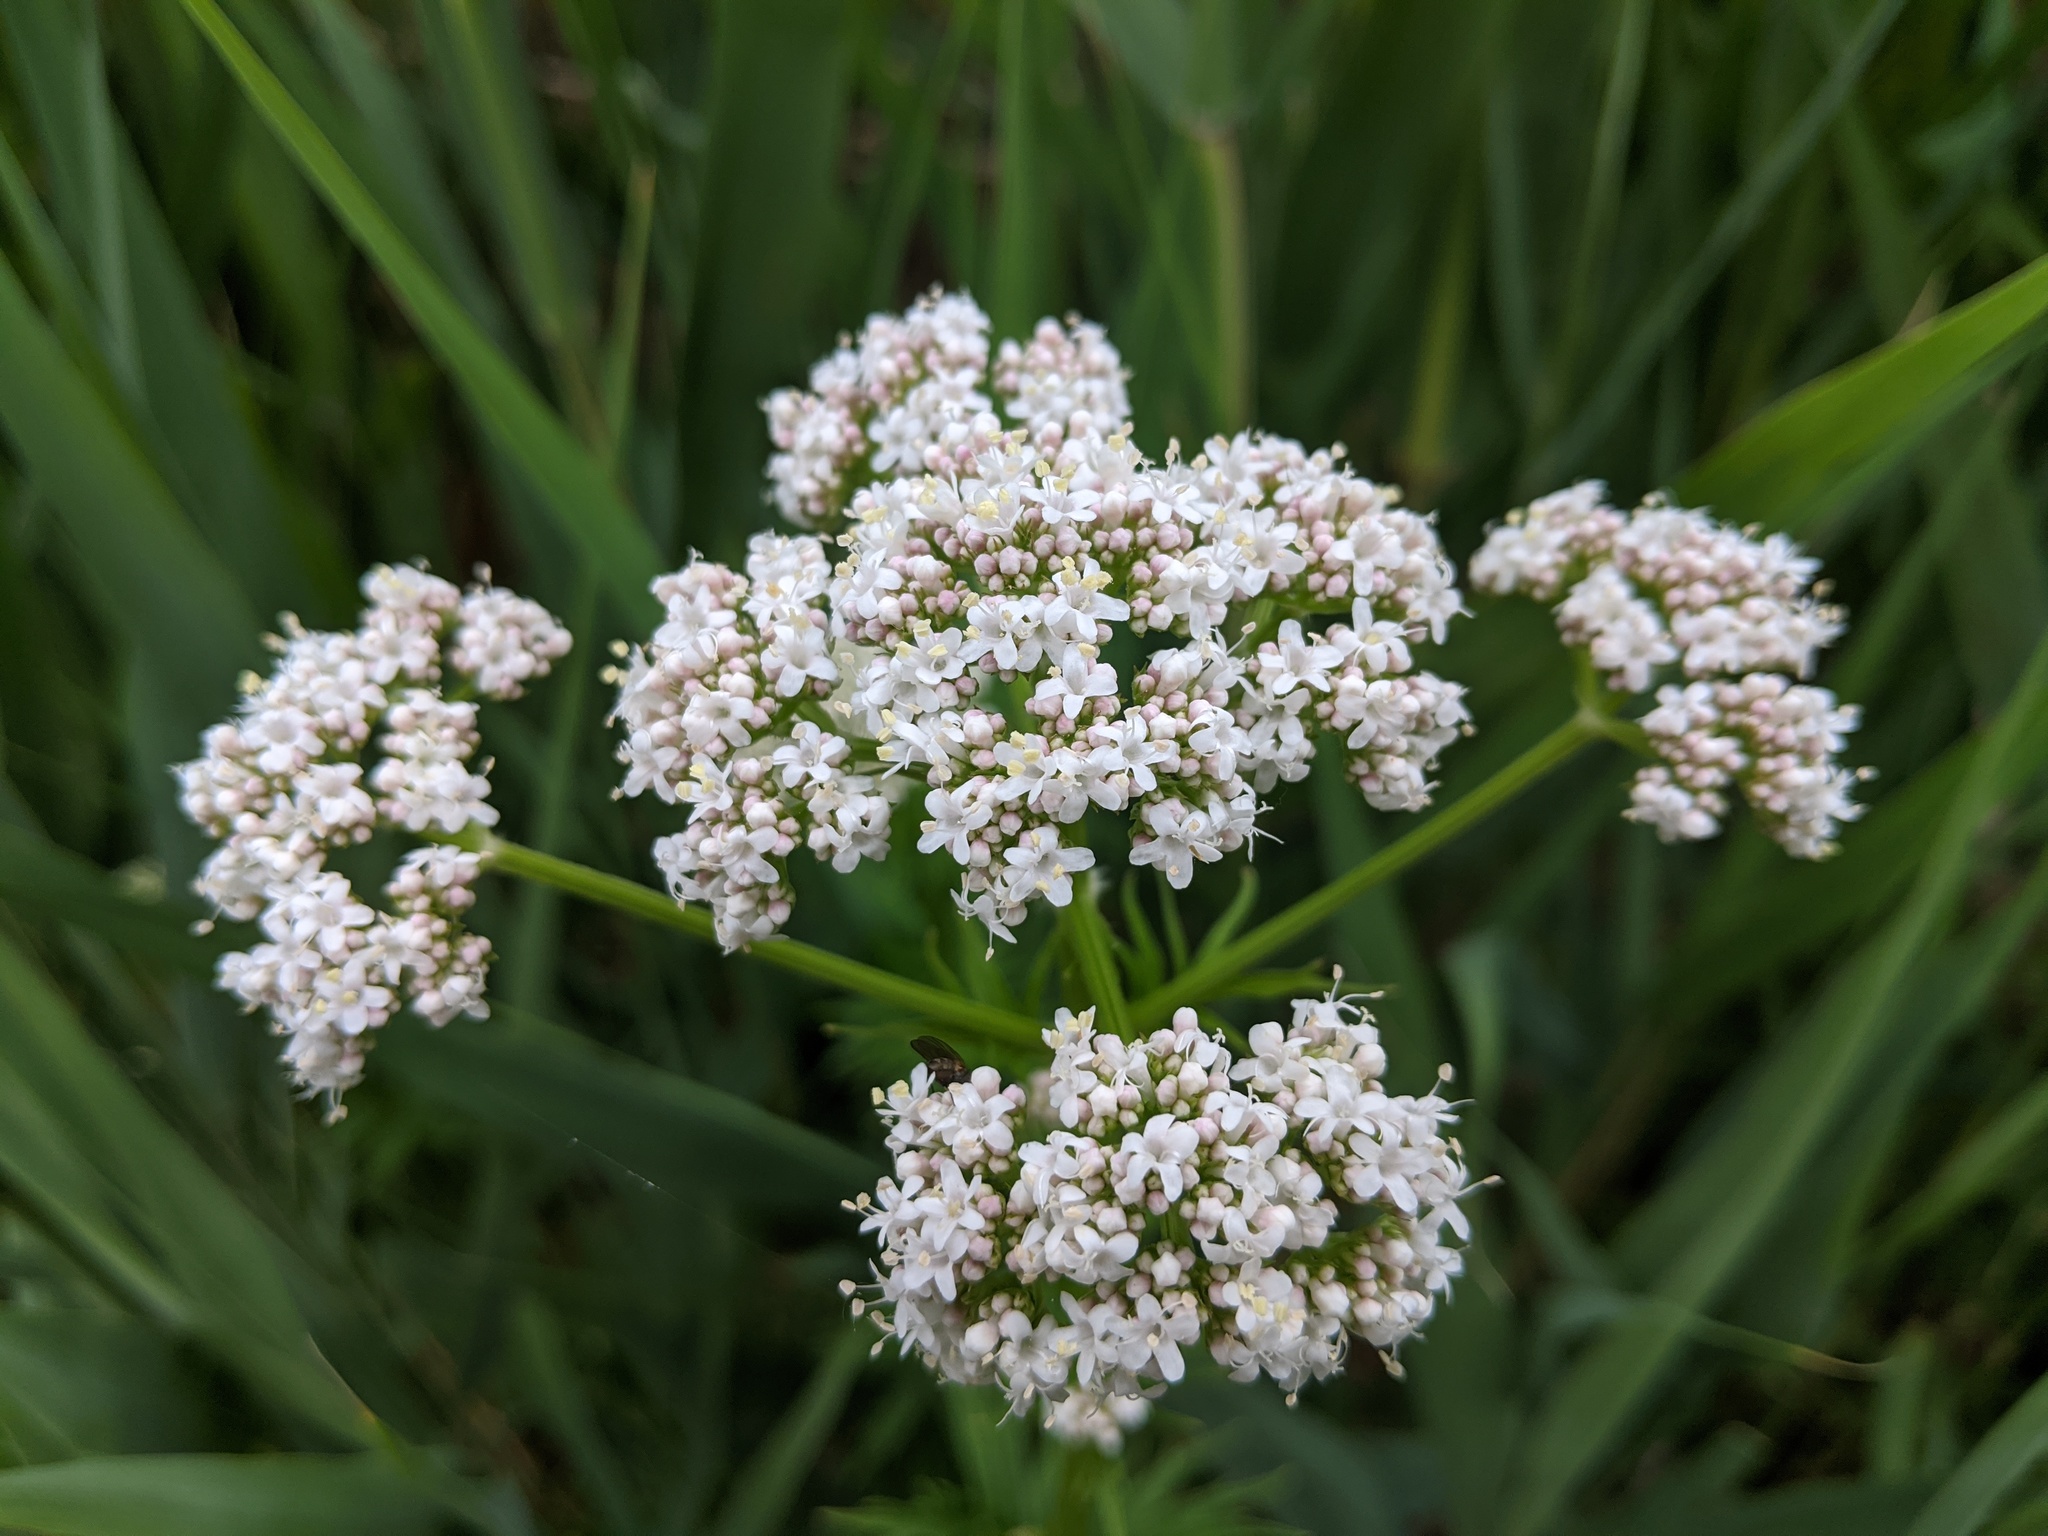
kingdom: Plantae
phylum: Tracheophyta
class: Magnoliopsida
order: Dipsacales
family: Caprifoliaceae
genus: Valeriana
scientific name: Valeriana officinalis
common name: Common valerian
